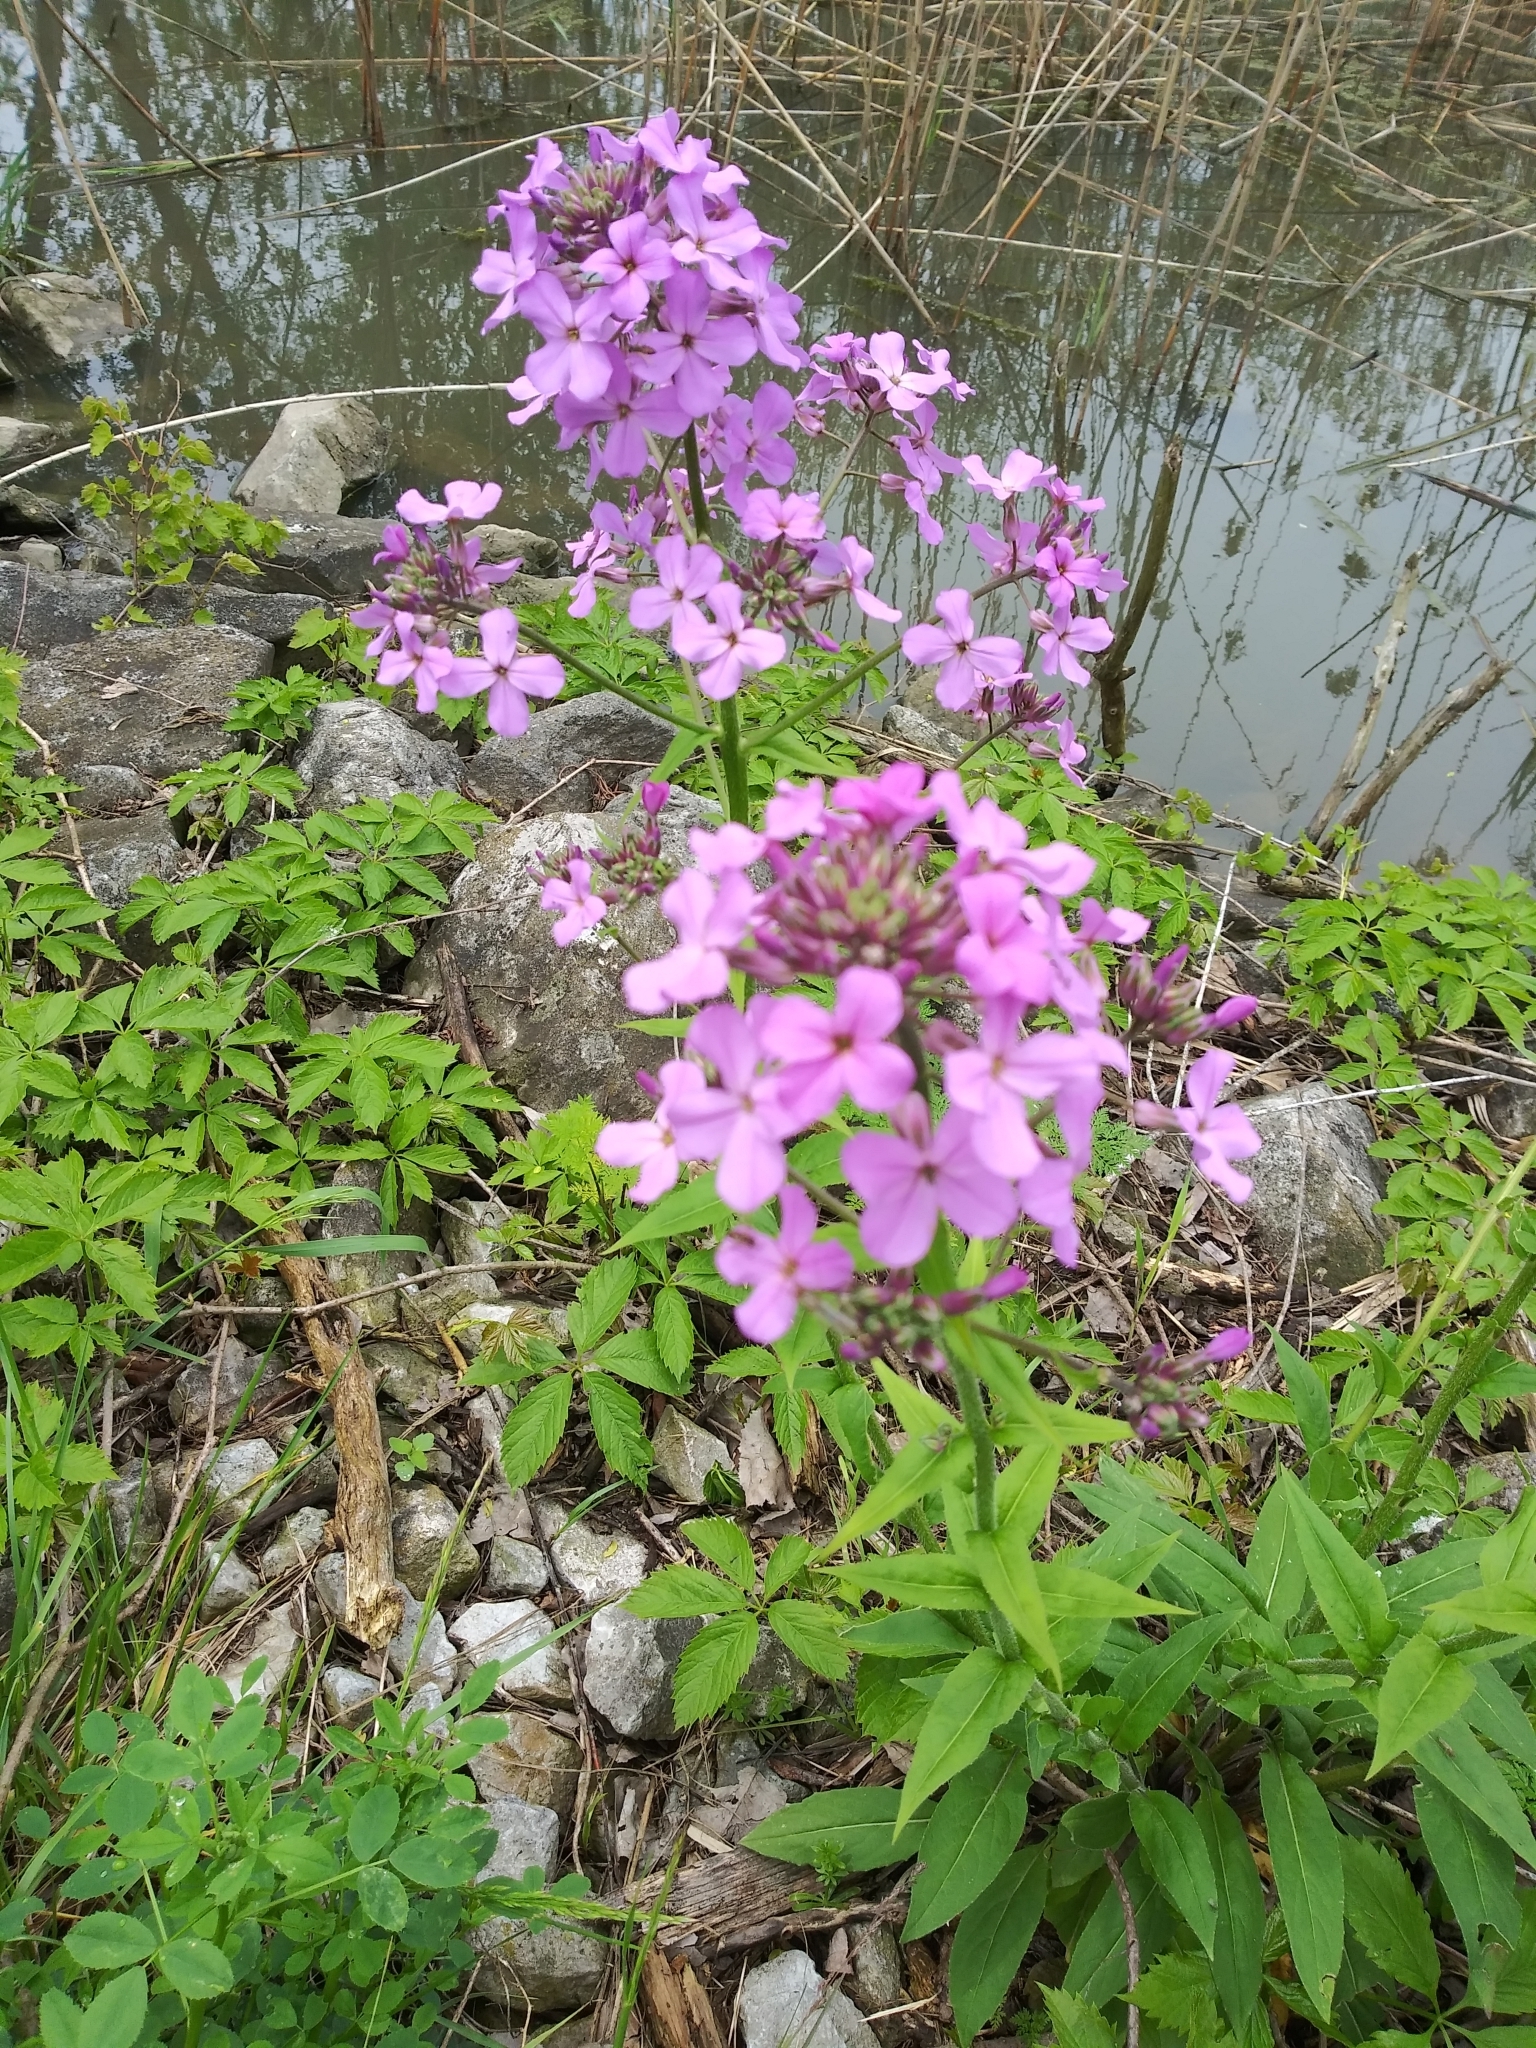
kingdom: Plantae
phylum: Tracheophyta
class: Magnoliopsida
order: Brassicales
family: Brassicaceae
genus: Hesperis
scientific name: Hesperis matronalis
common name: Dame's-violet
